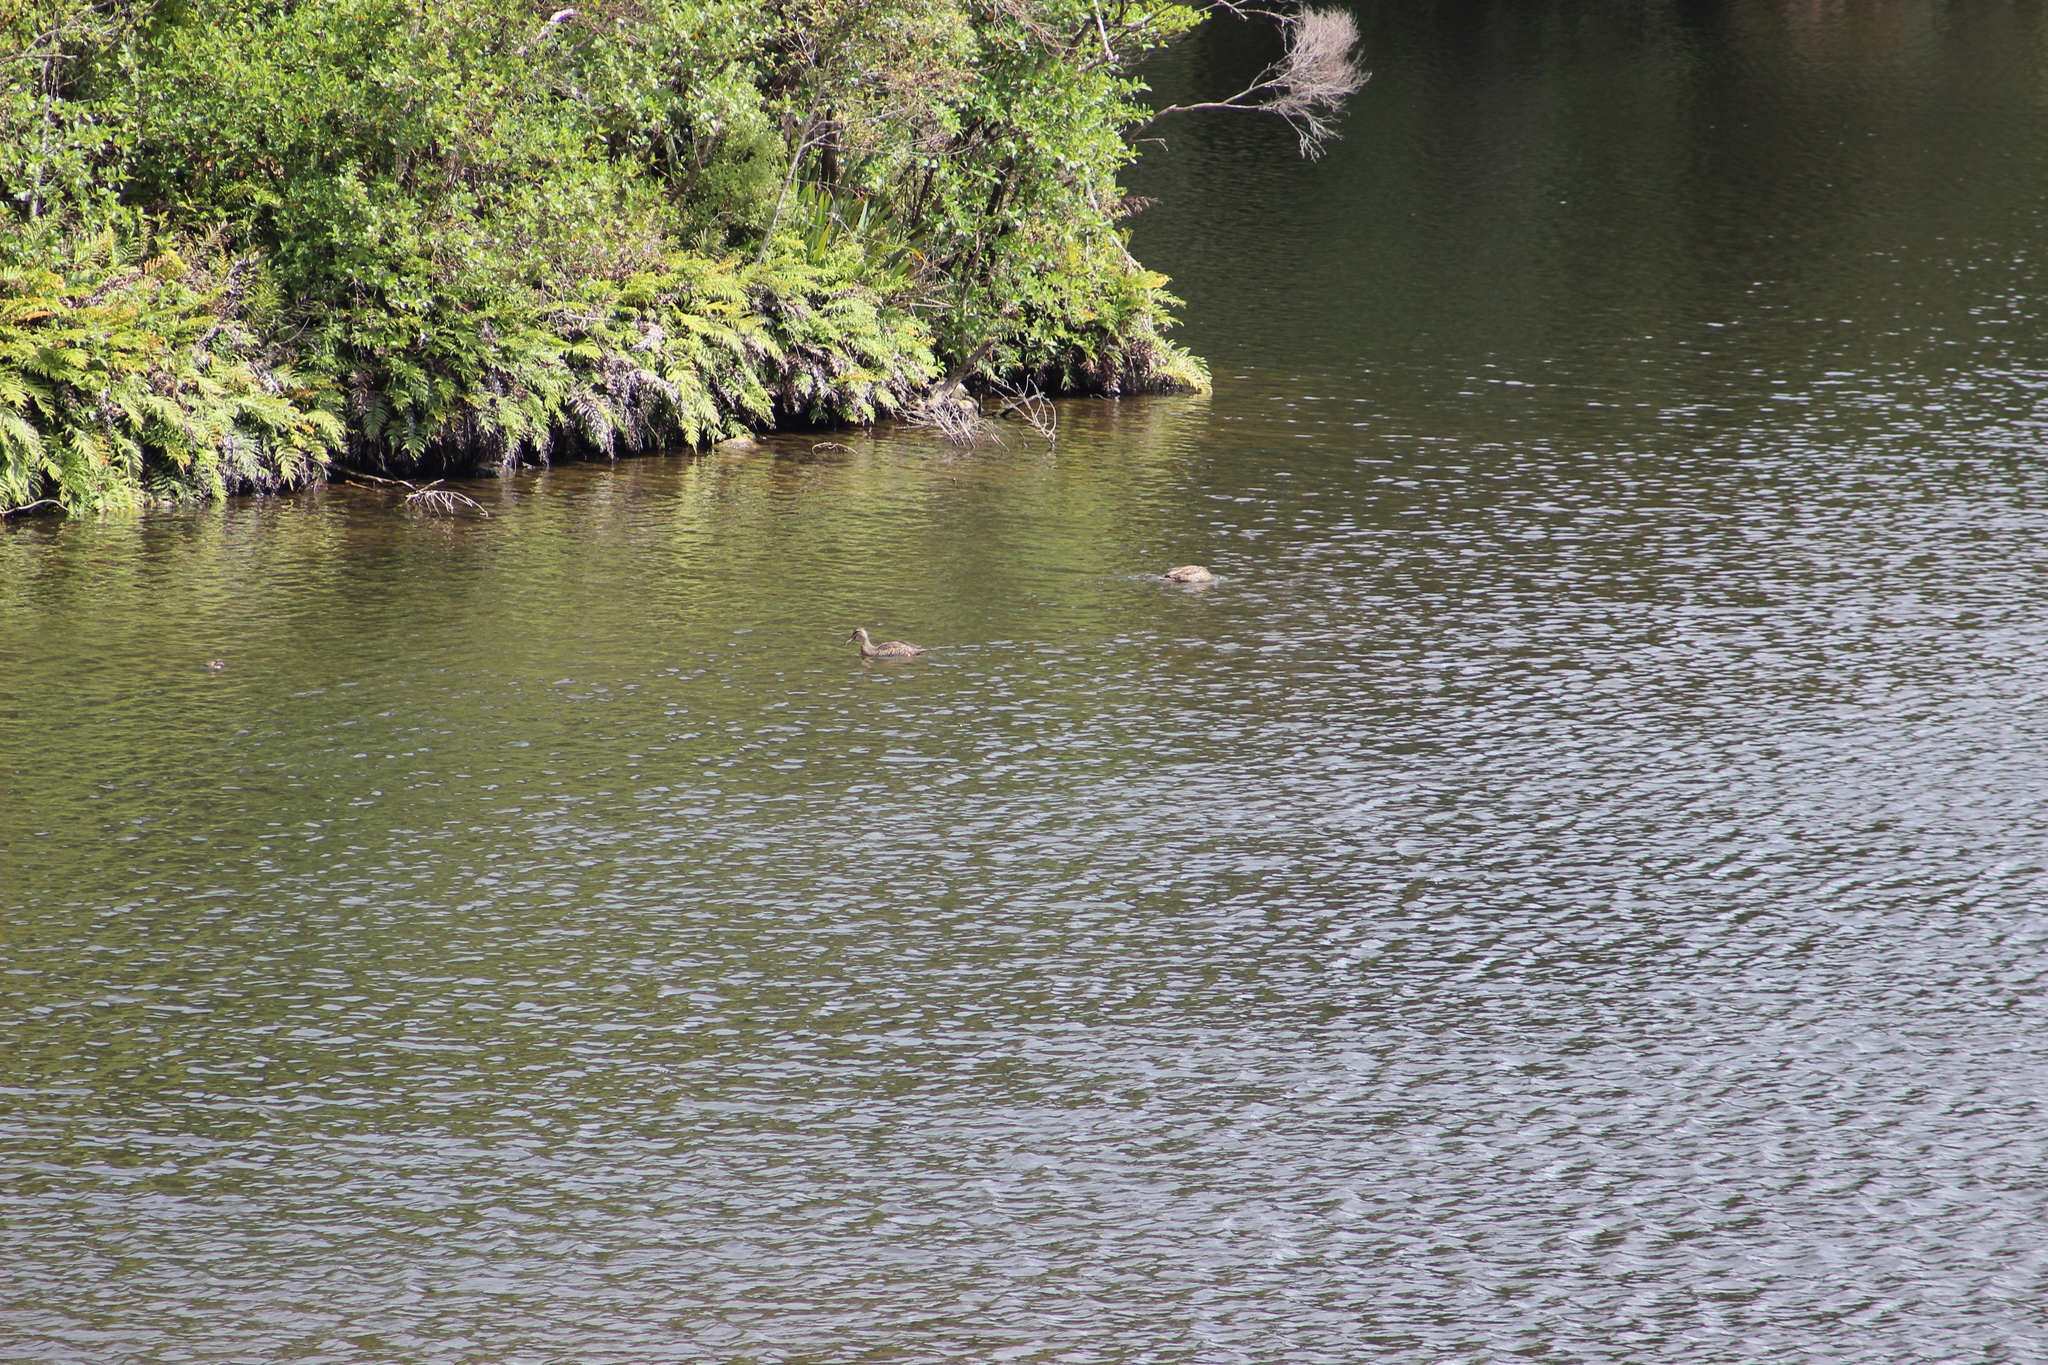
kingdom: Animalia
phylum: Chordata
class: Aves
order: Anseriformes
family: Anatidae
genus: Anas
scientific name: Anas
